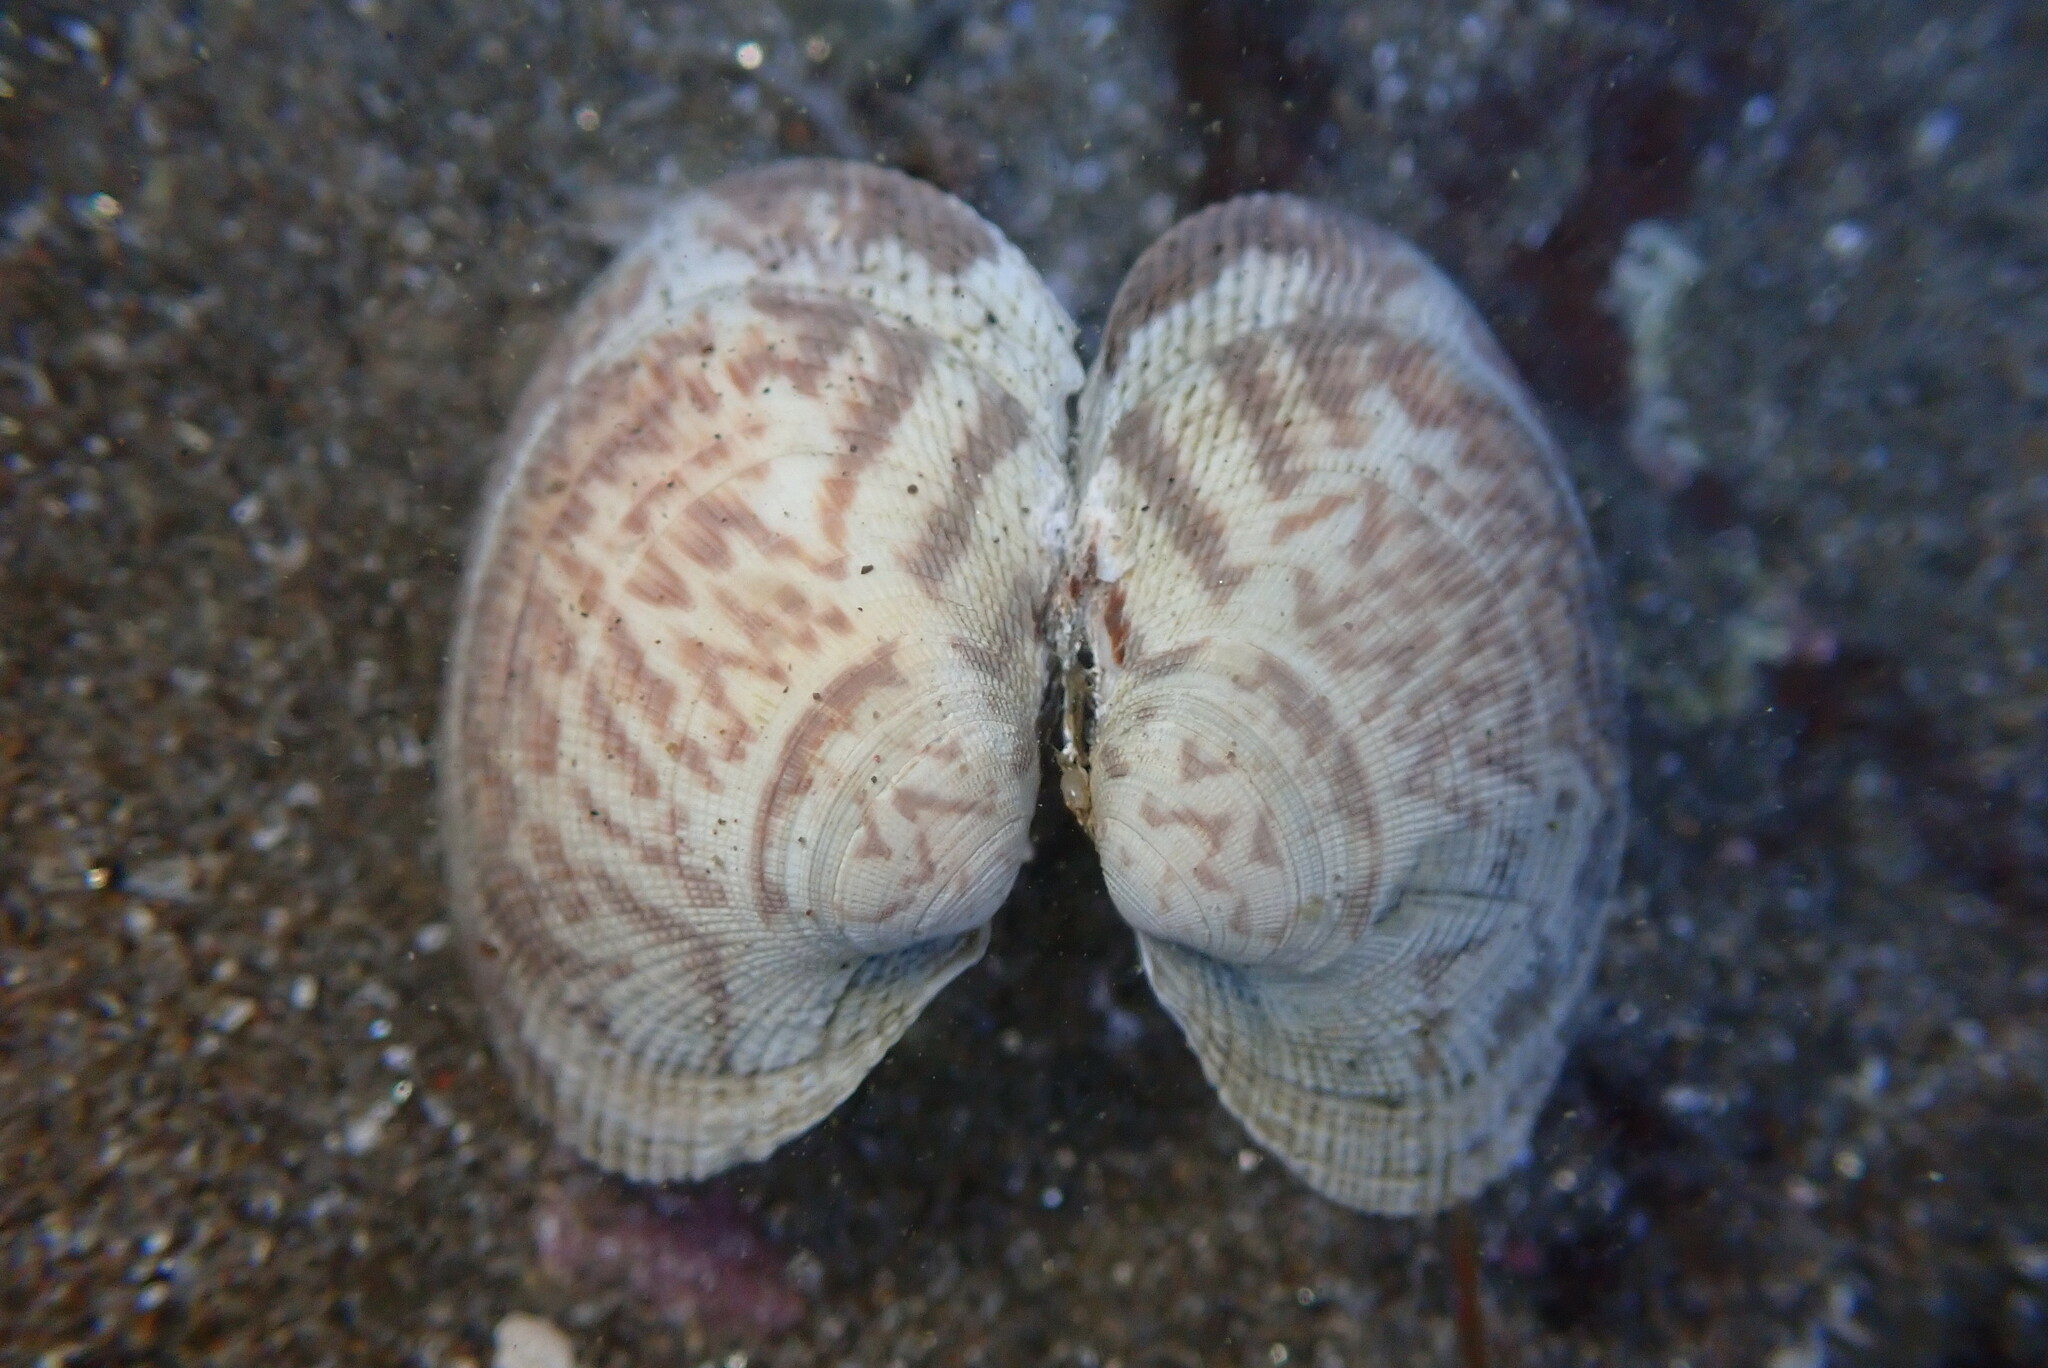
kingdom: Animalia
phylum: Mollusca
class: Bivalvia
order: Venerida
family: Veneridae
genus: Leukoma
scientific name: Leukoma staminea
